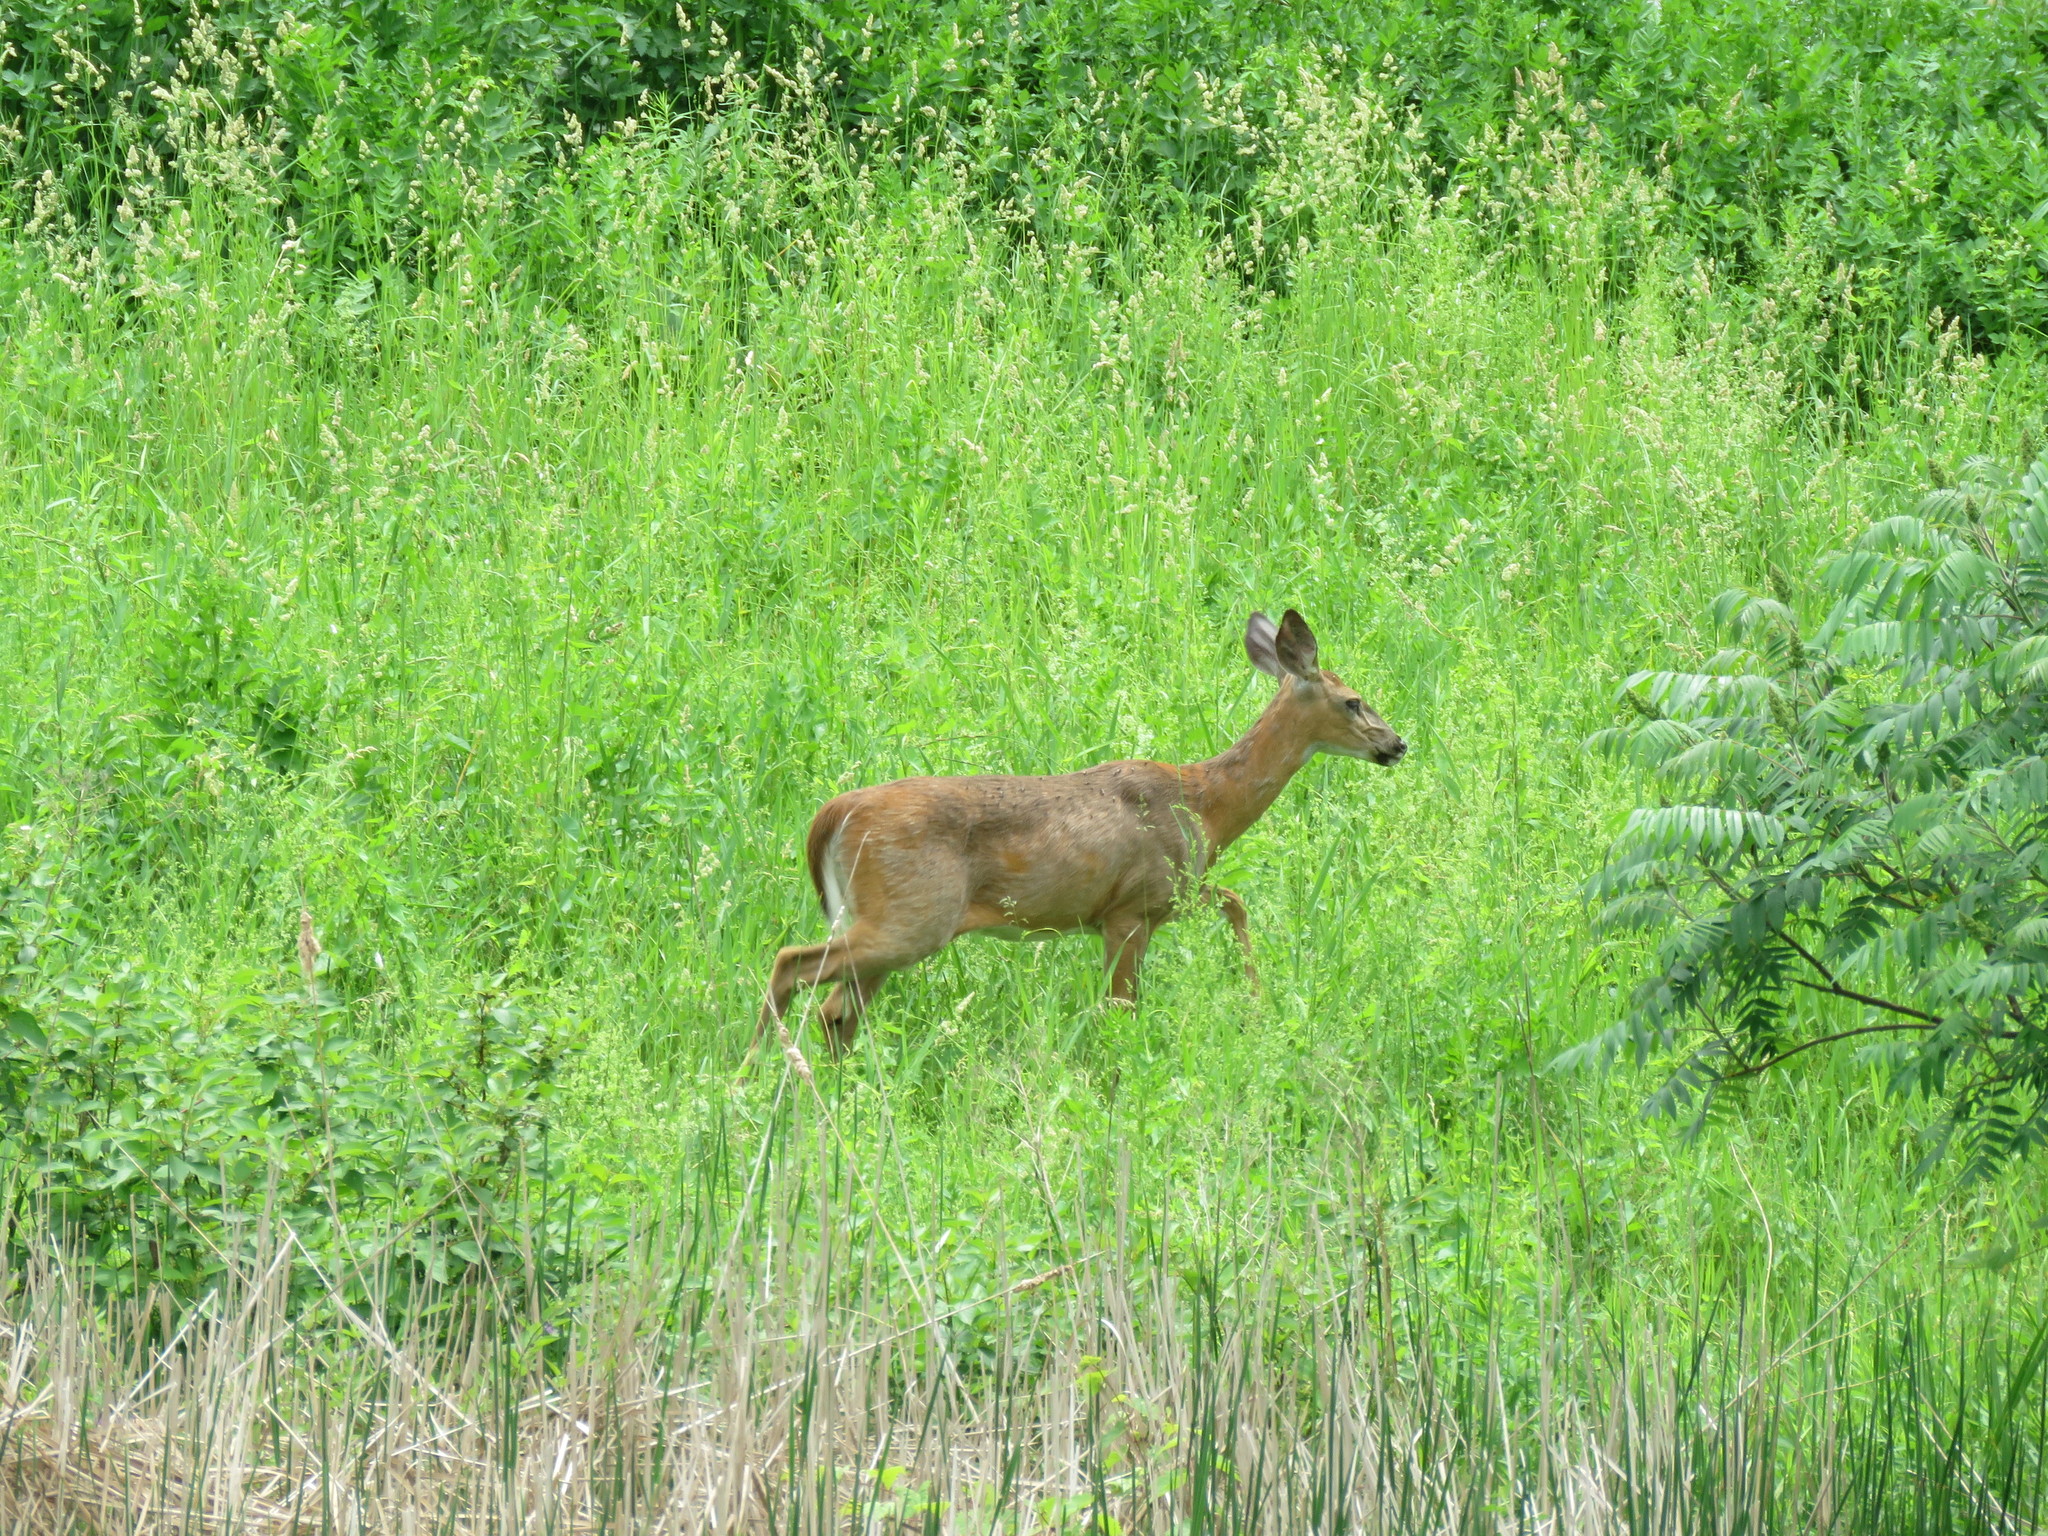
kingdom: Animalia
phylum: Chordata
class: Mammalia
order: Artiodactyla
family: Cervidae
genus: Odocoileus
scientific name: Odocoileus virginianus
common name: White-tailed deer
